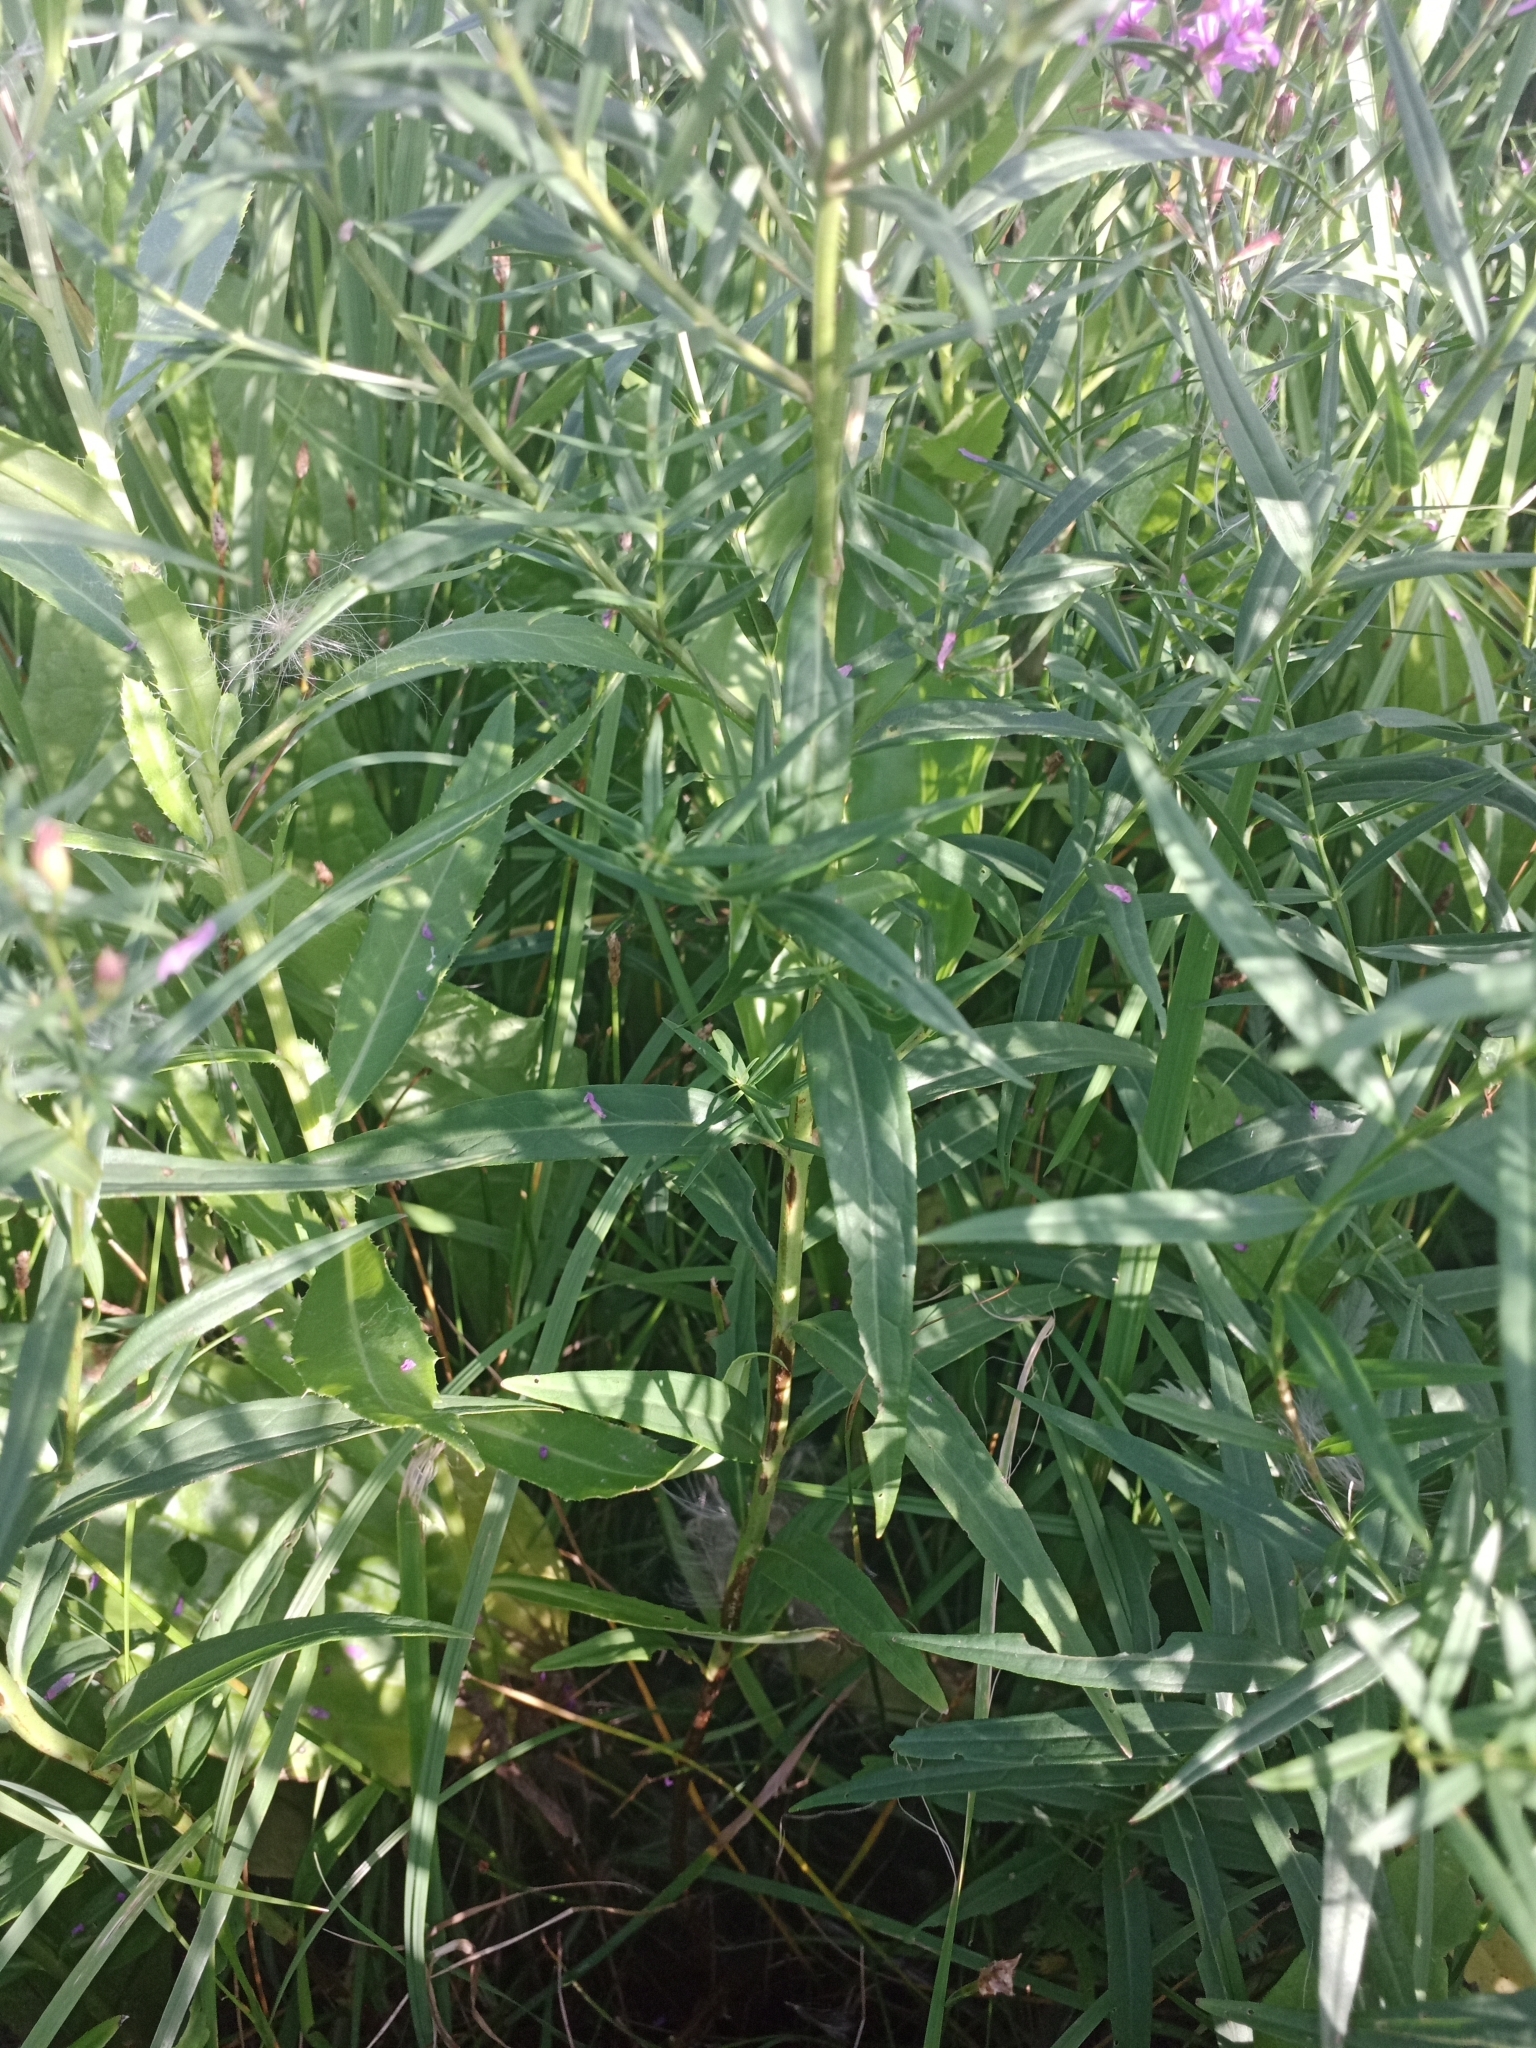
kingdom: Plantae
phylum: Tracheophyta
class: Magnoliopsida
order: Myrtales
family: Lythraceae
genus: Lythrum
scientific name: Lythrum virgatum
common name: European wand loosestrife
